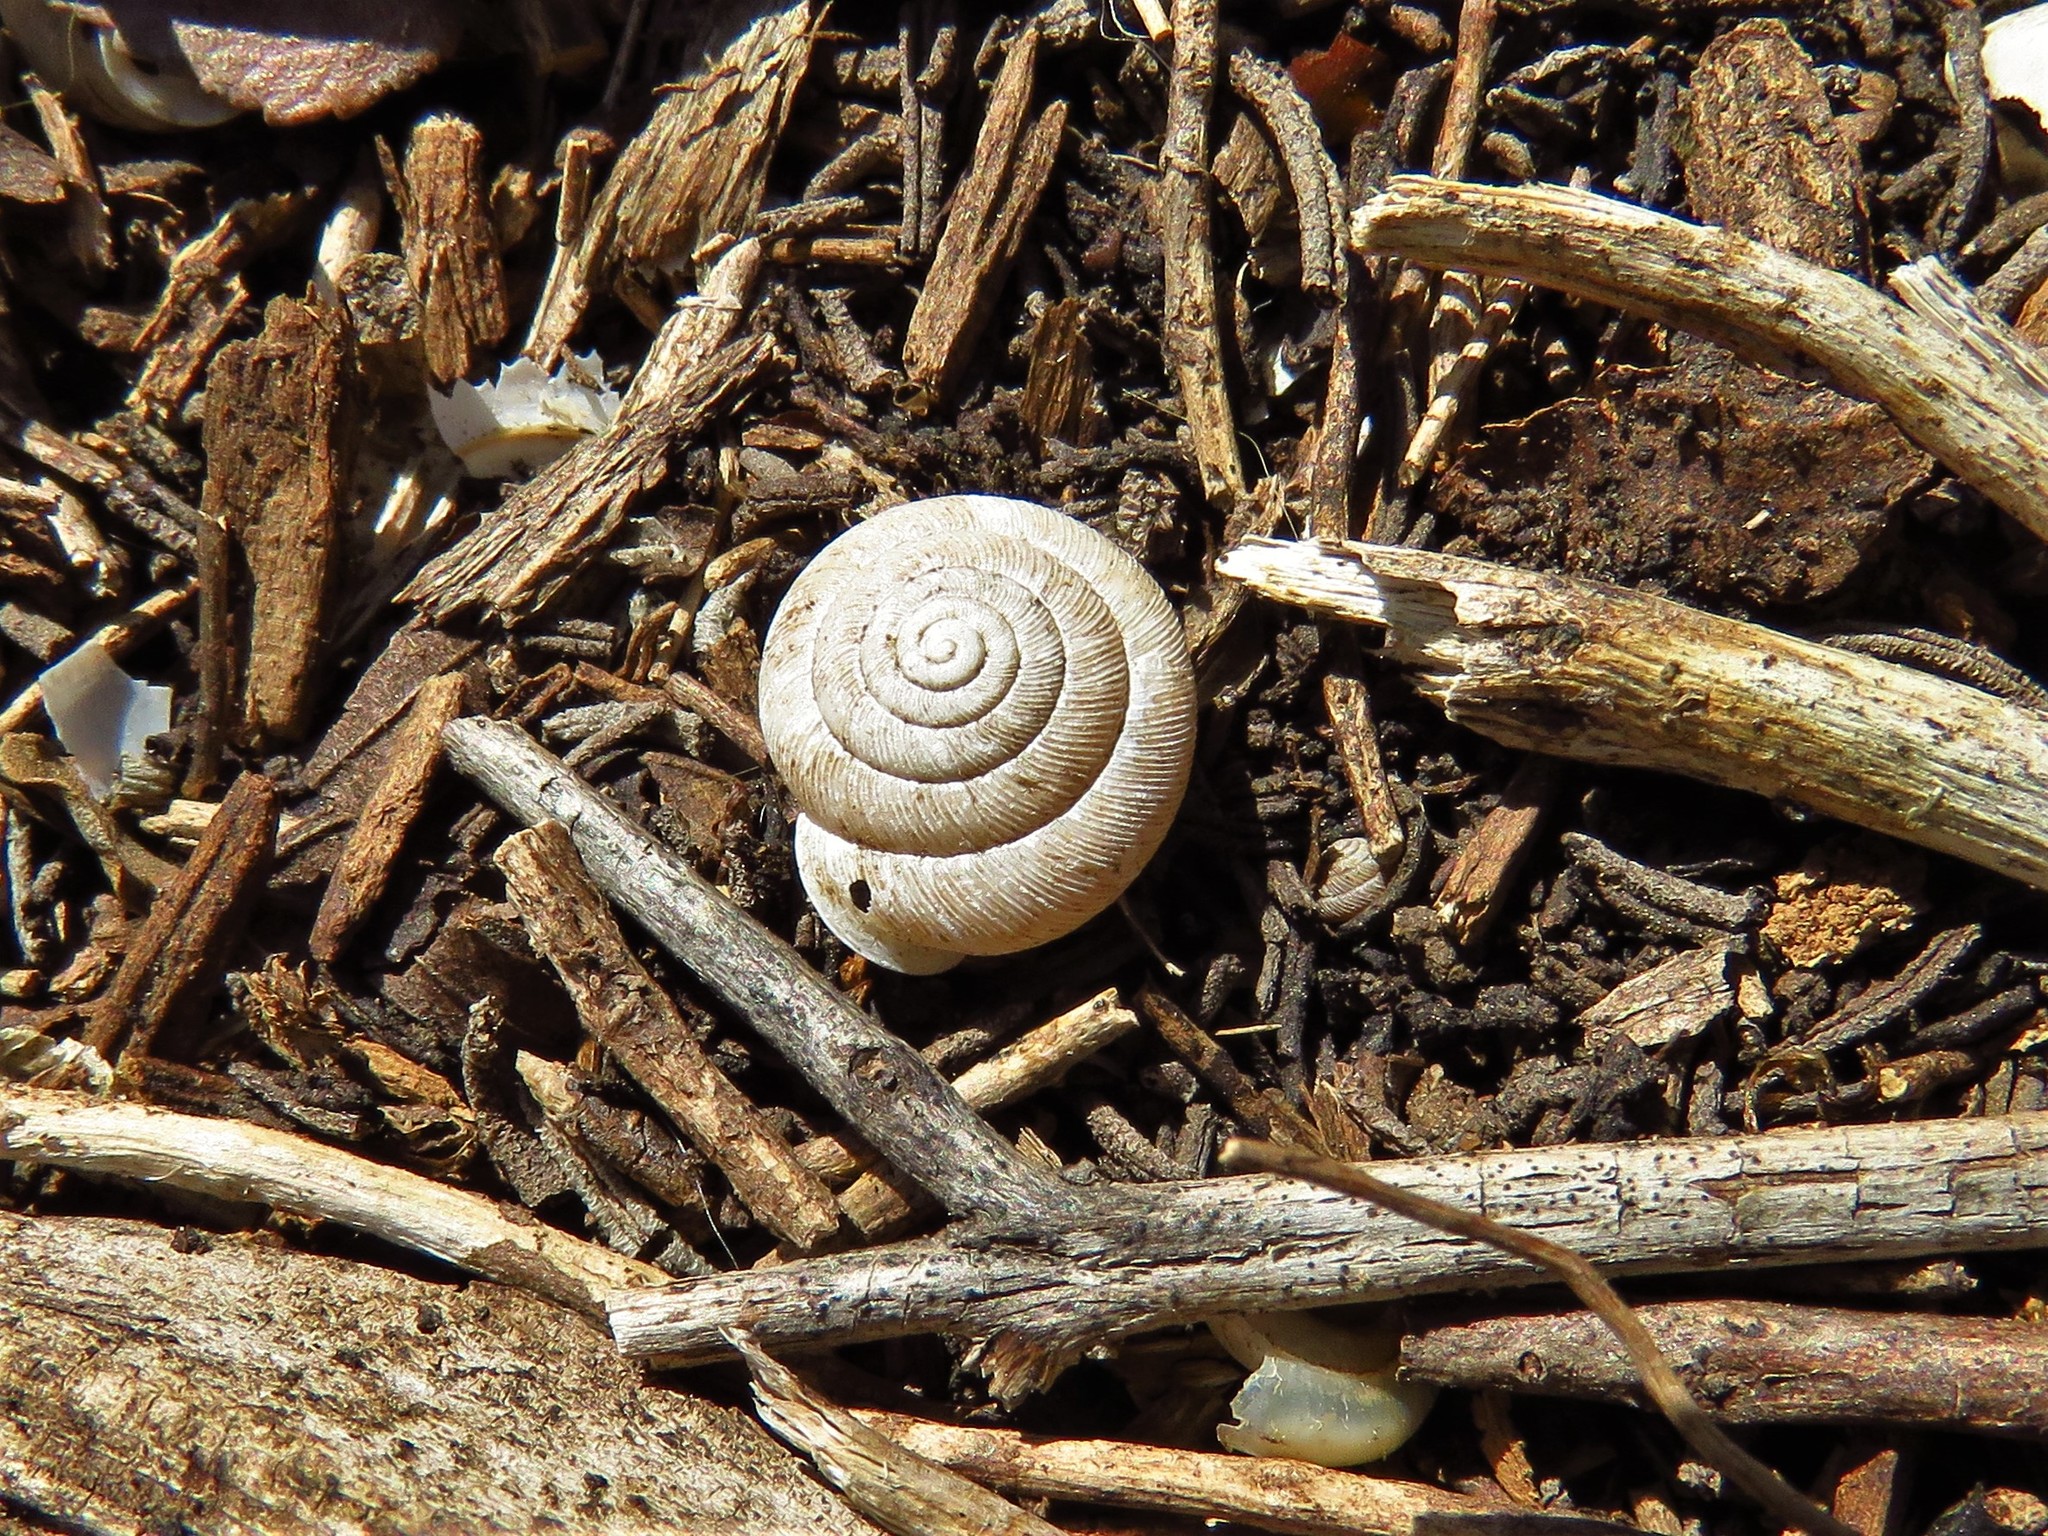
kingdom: Animalia
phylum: Mollusca
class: Gastropoda
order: Stylommatophora
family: Polygyridae
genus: Linisa
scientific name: Linisa texasiana
